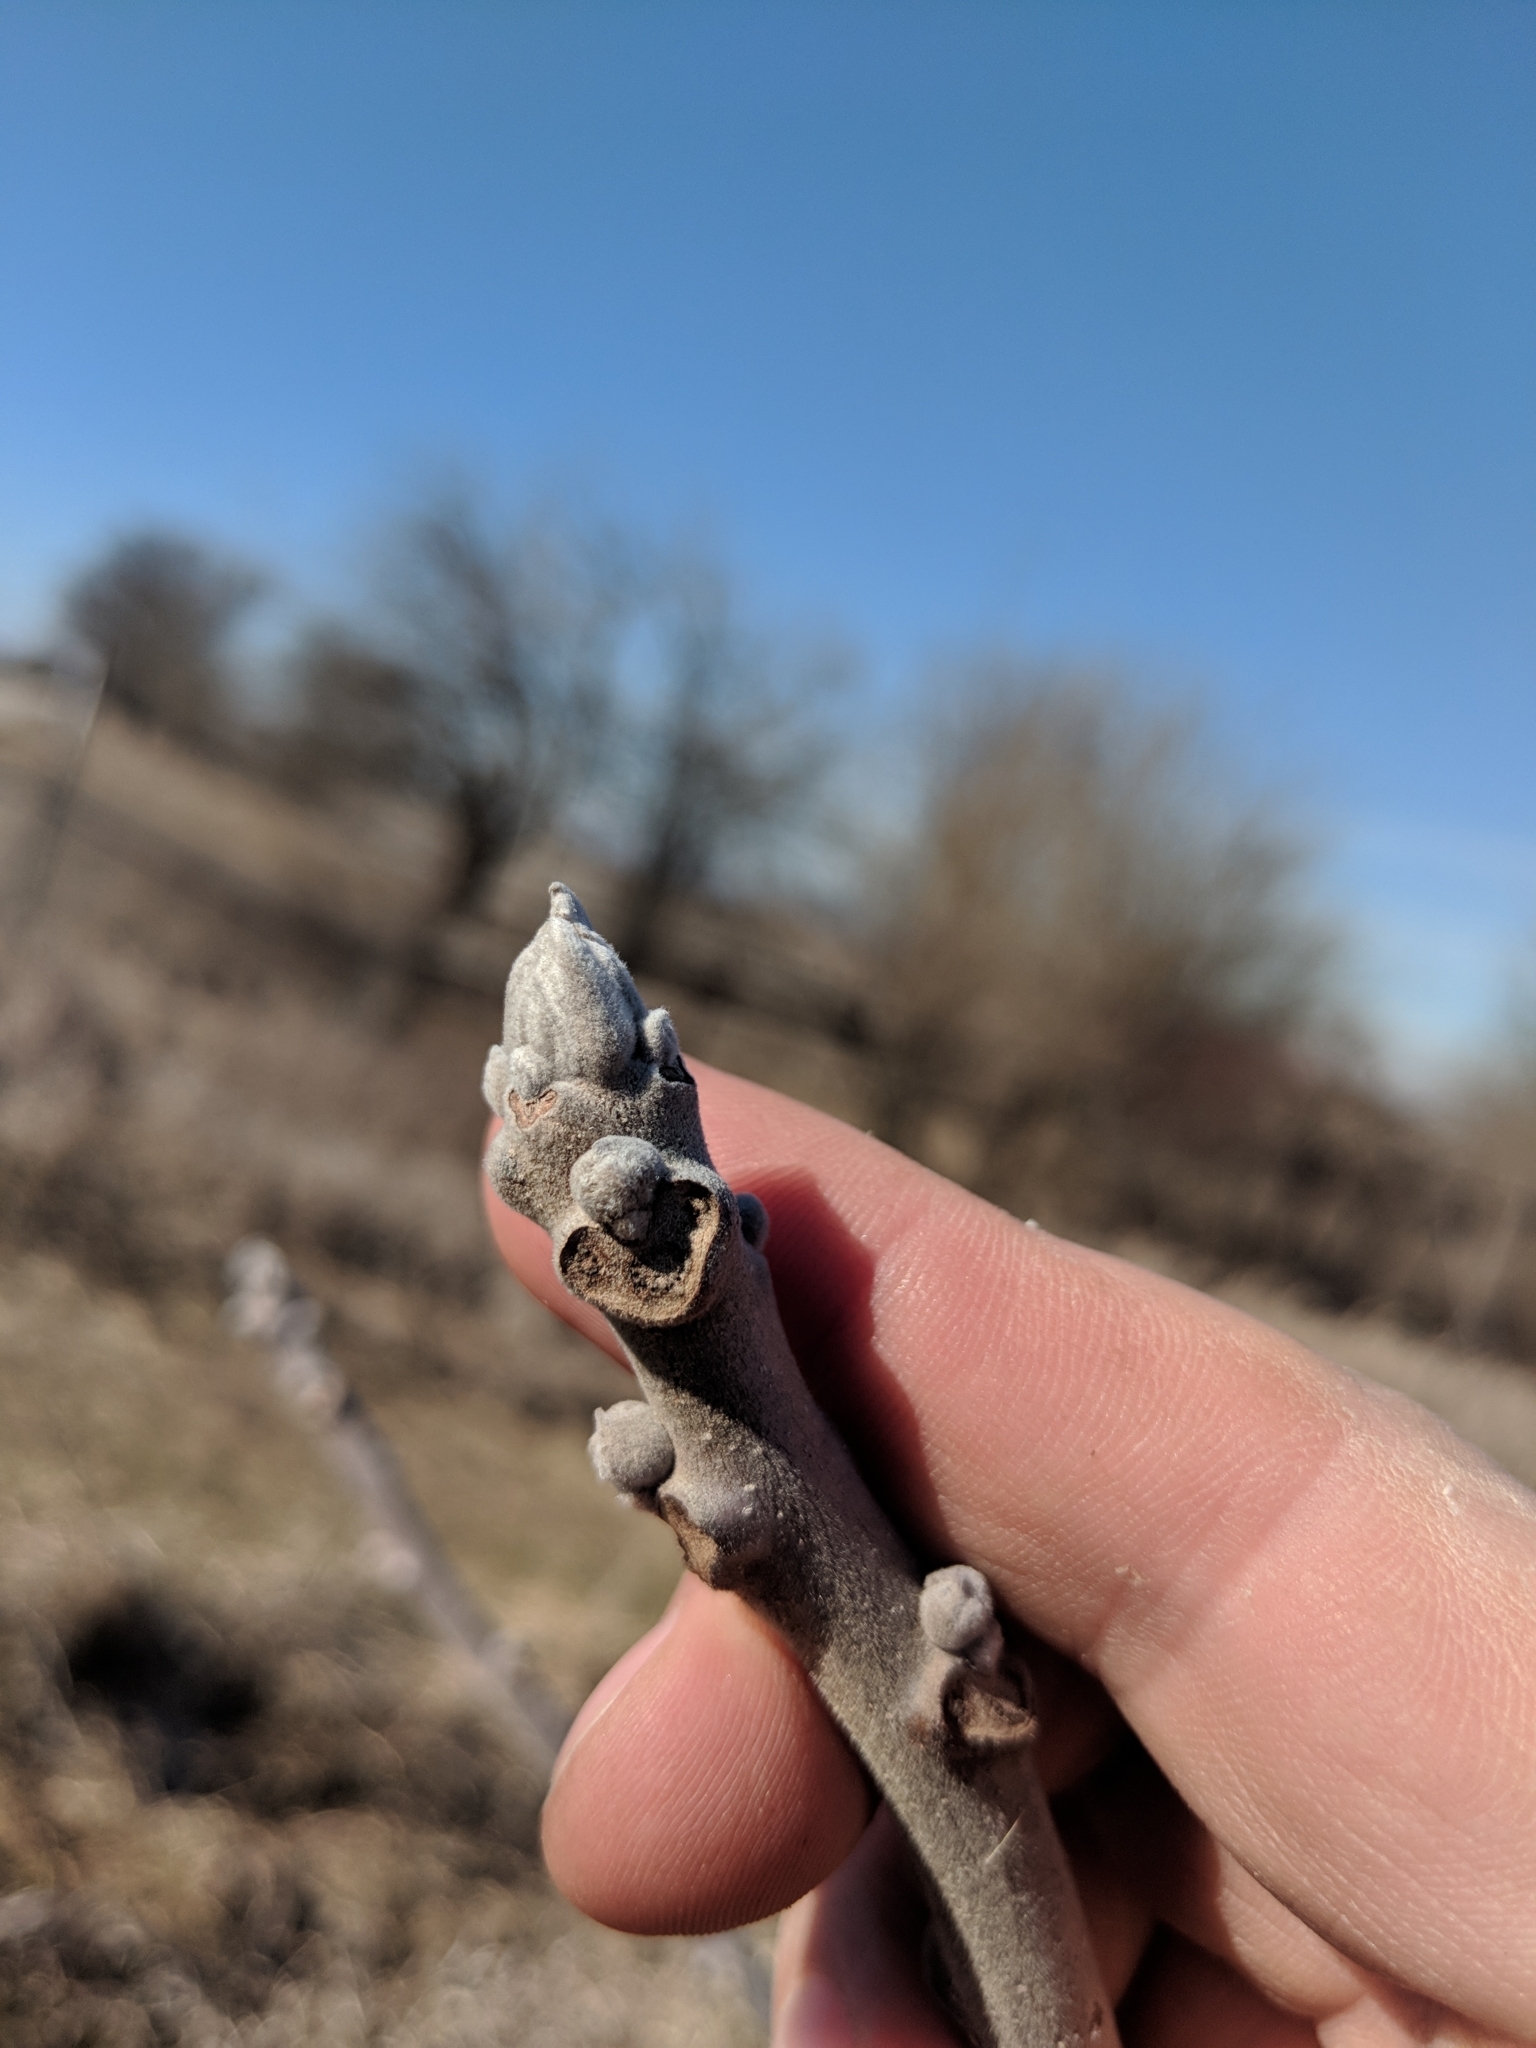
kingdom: Plantae
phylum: Tracheophyta
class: Magnoliopsida
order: Fagales
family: Juglandaceae
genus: Juglans
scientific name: Juglans nigra
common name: Black walnut
